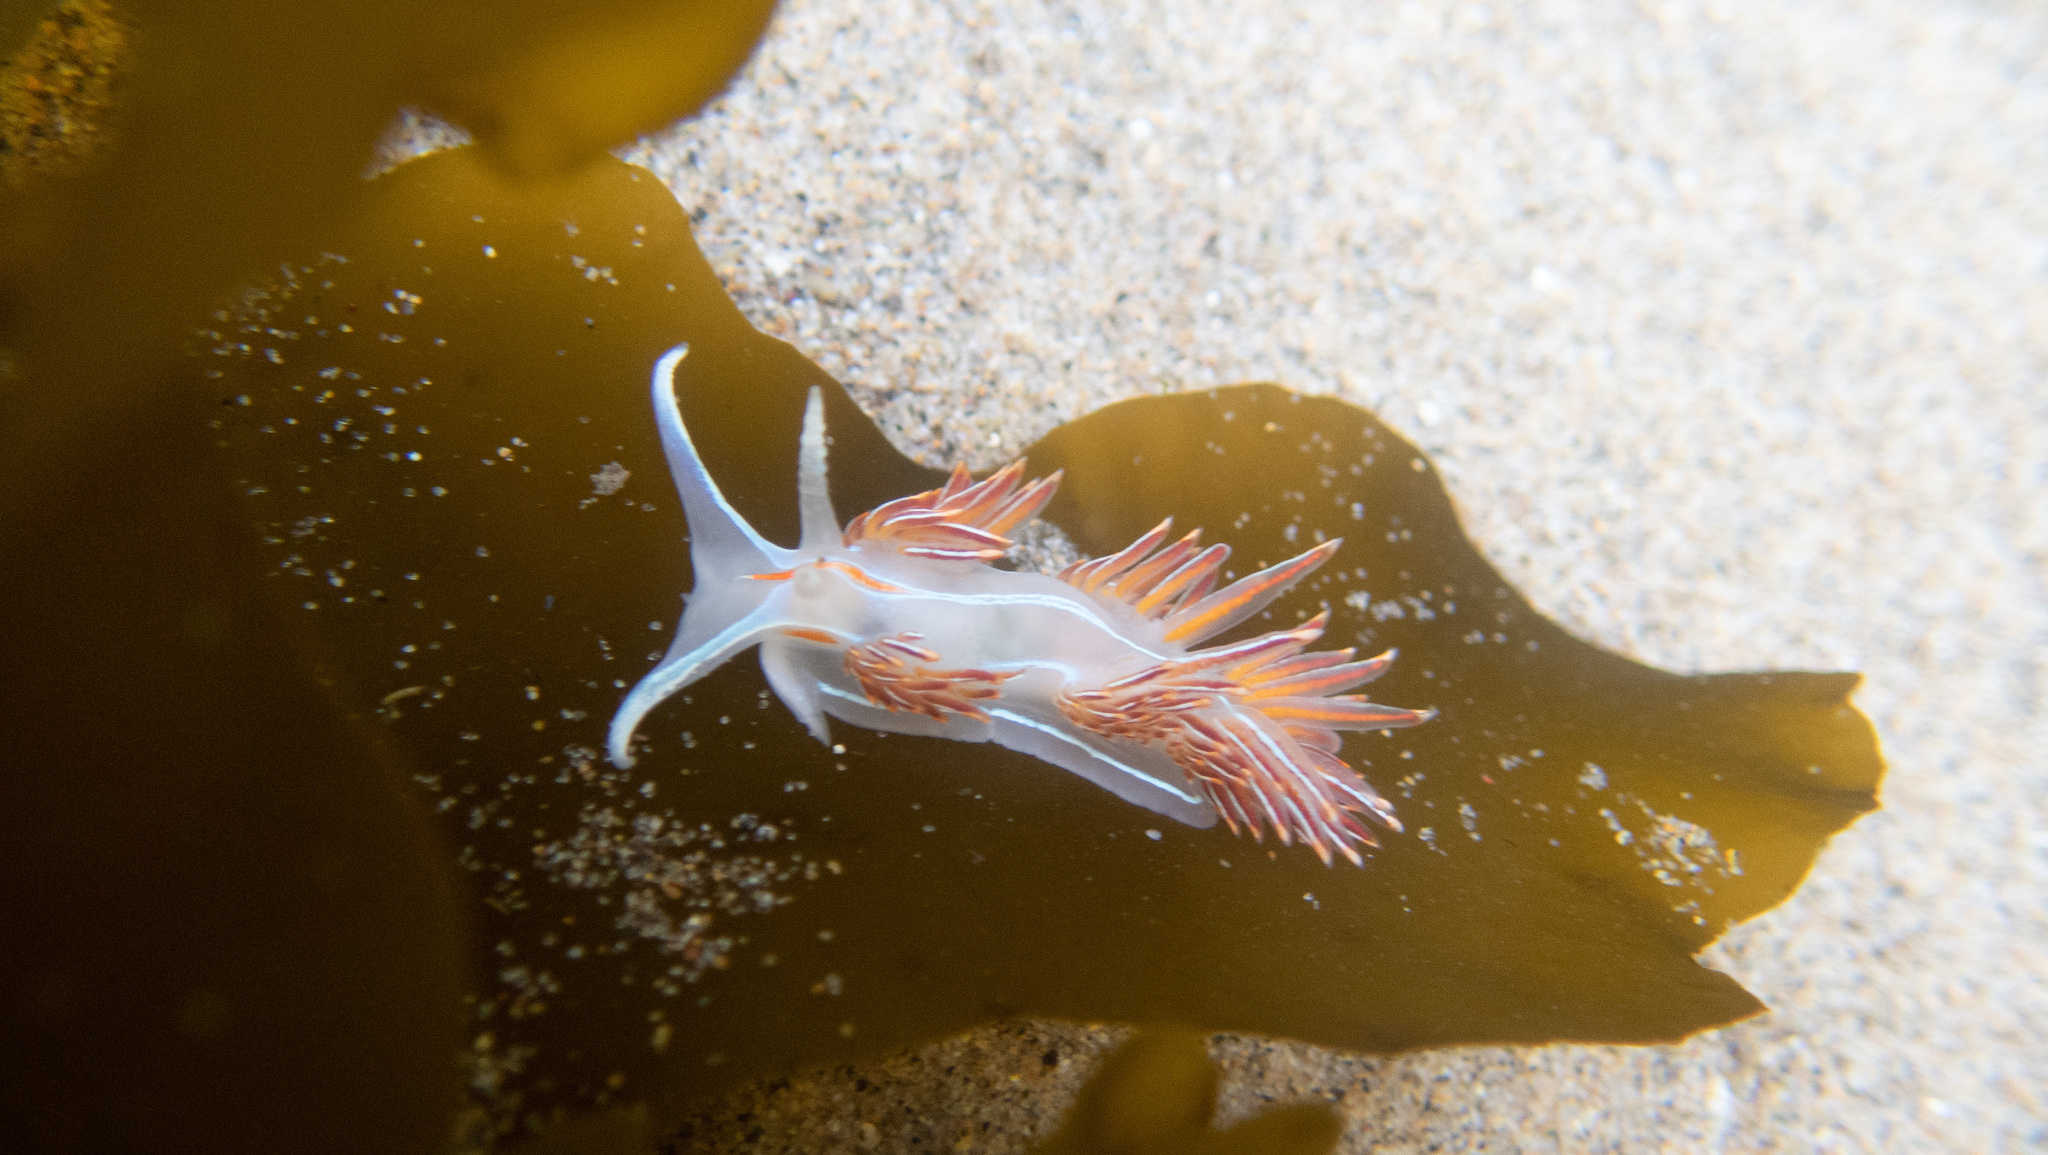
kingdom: Animalia
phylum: Mollusca
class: Gastropoda
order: Nudibranchia
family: Myrrhinidae
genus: Hermissenda
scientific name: Hermissenda crassicornis
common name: Hermissenda
